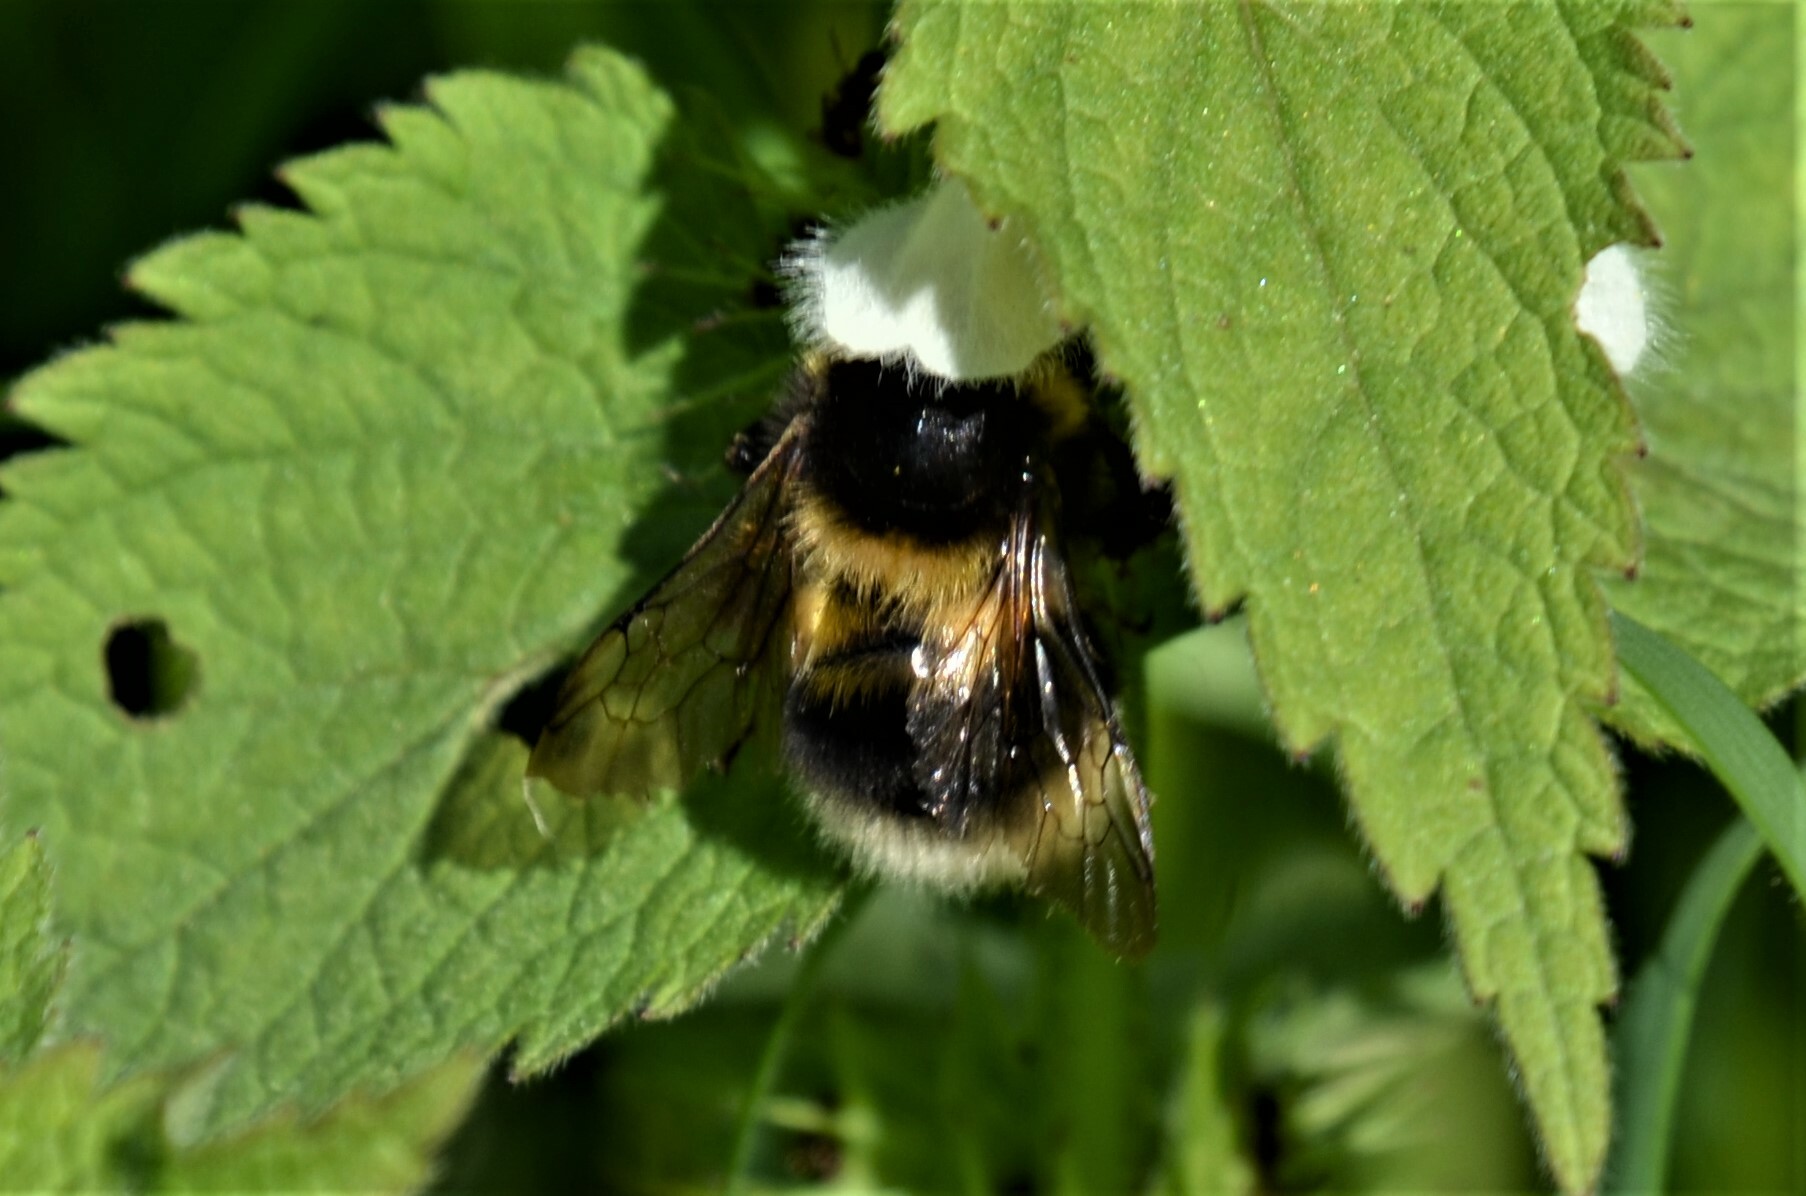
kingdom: Animalia
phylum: Arthropoda
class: Insecta
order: Hymenoptera
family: Apidae
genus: Bombus
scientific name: Bombus hortorum
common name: Garden bumblebee
